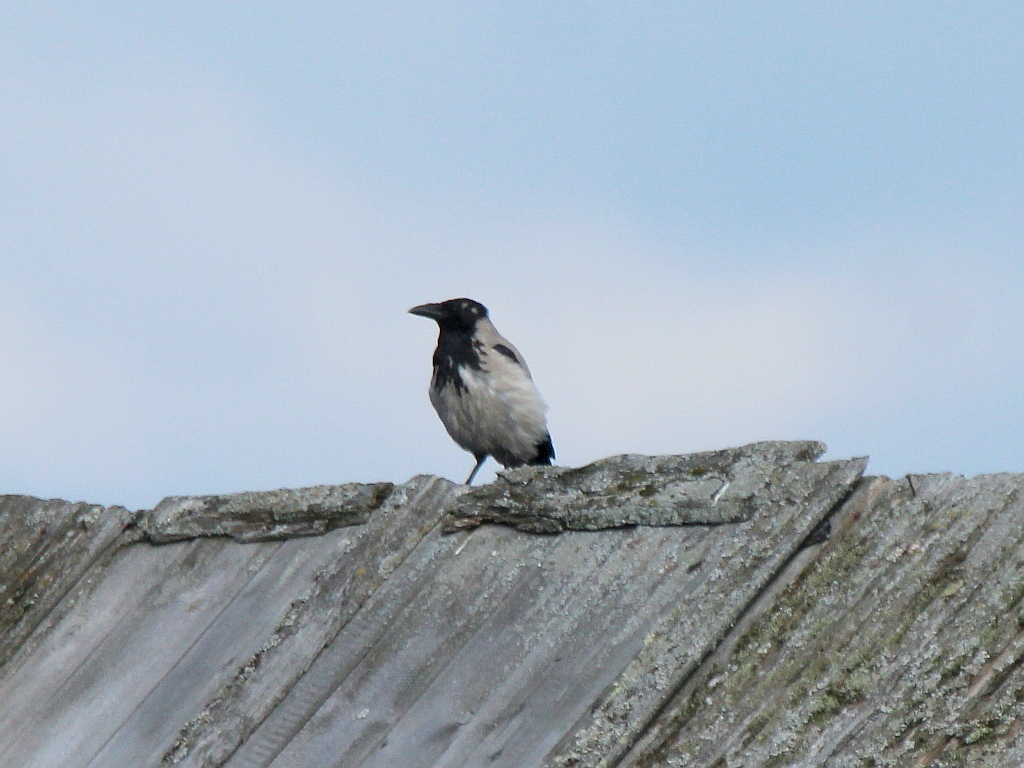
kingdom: Animalia
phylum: Chordata
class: Aves
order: Passeriformes
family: Corvidae
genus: Corvus
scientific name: Corvus cornix
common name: Hooded crow
